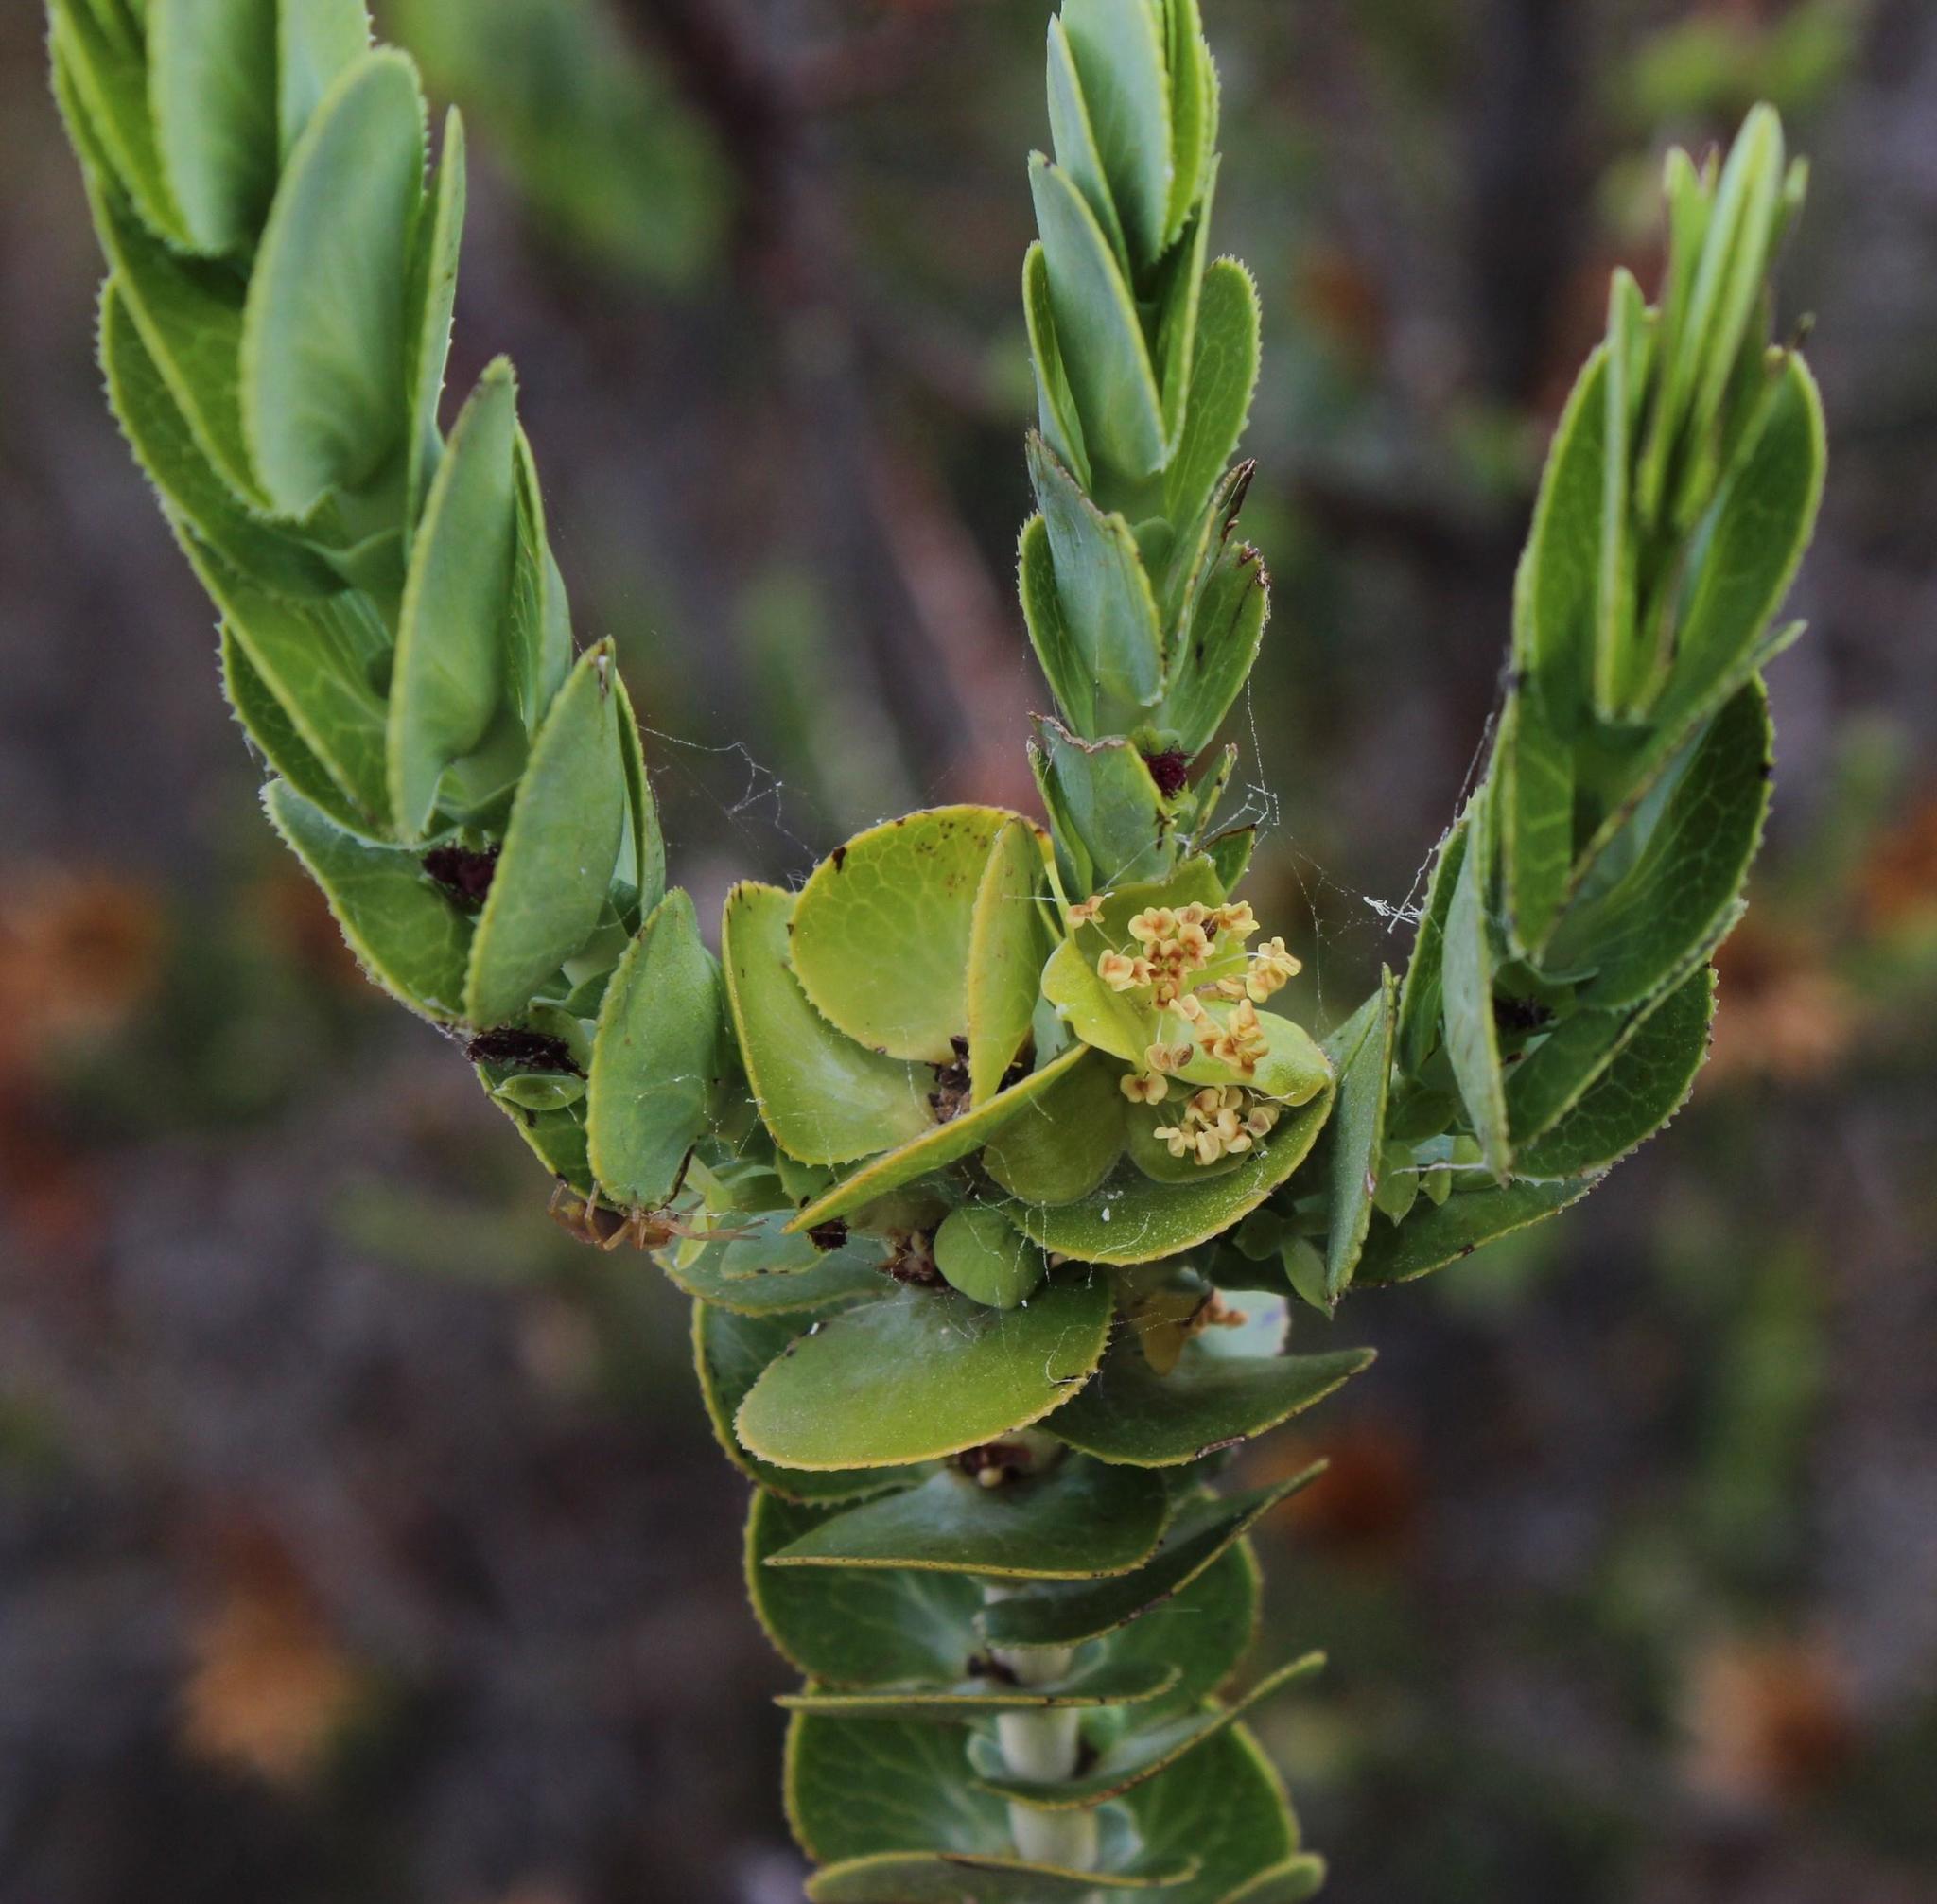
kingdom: Plantae
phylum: Tracheophyta
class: Magnoliopsida
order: Rosales
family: Rosaceae
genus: Cliffortia
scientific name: Cliffortia crenata
